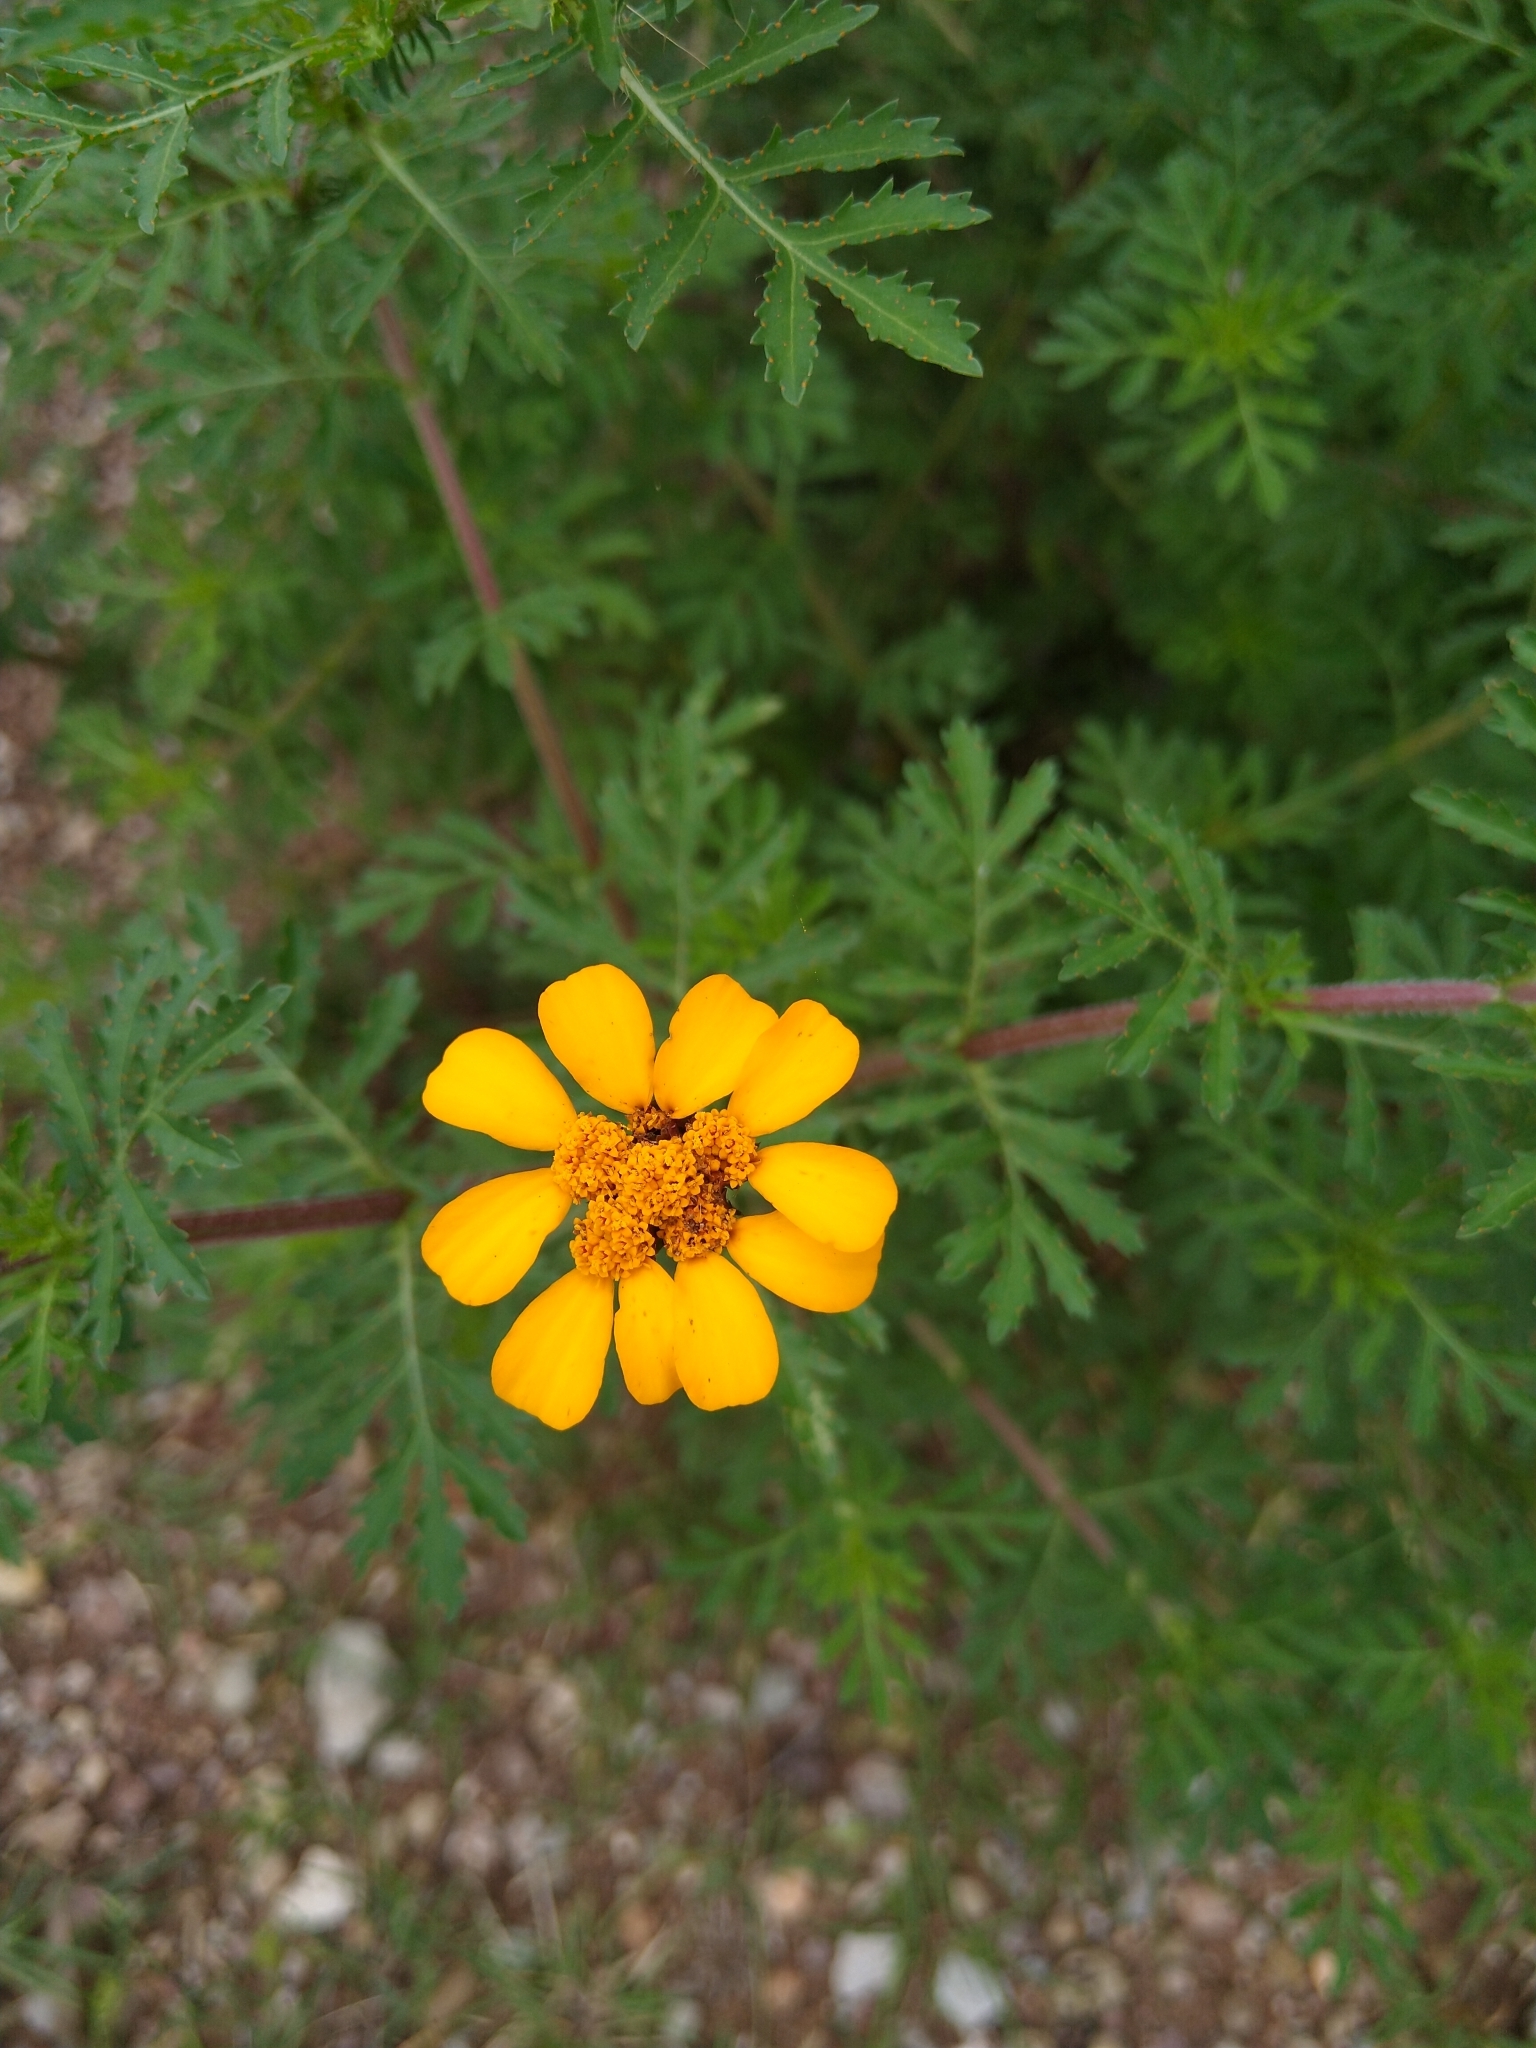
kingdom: Plantae
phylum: Tracheophyta
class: Magnoliopsida
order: Asterales
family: Asteraceae
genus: Dyssodia
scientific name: Dyssodia decipiens
